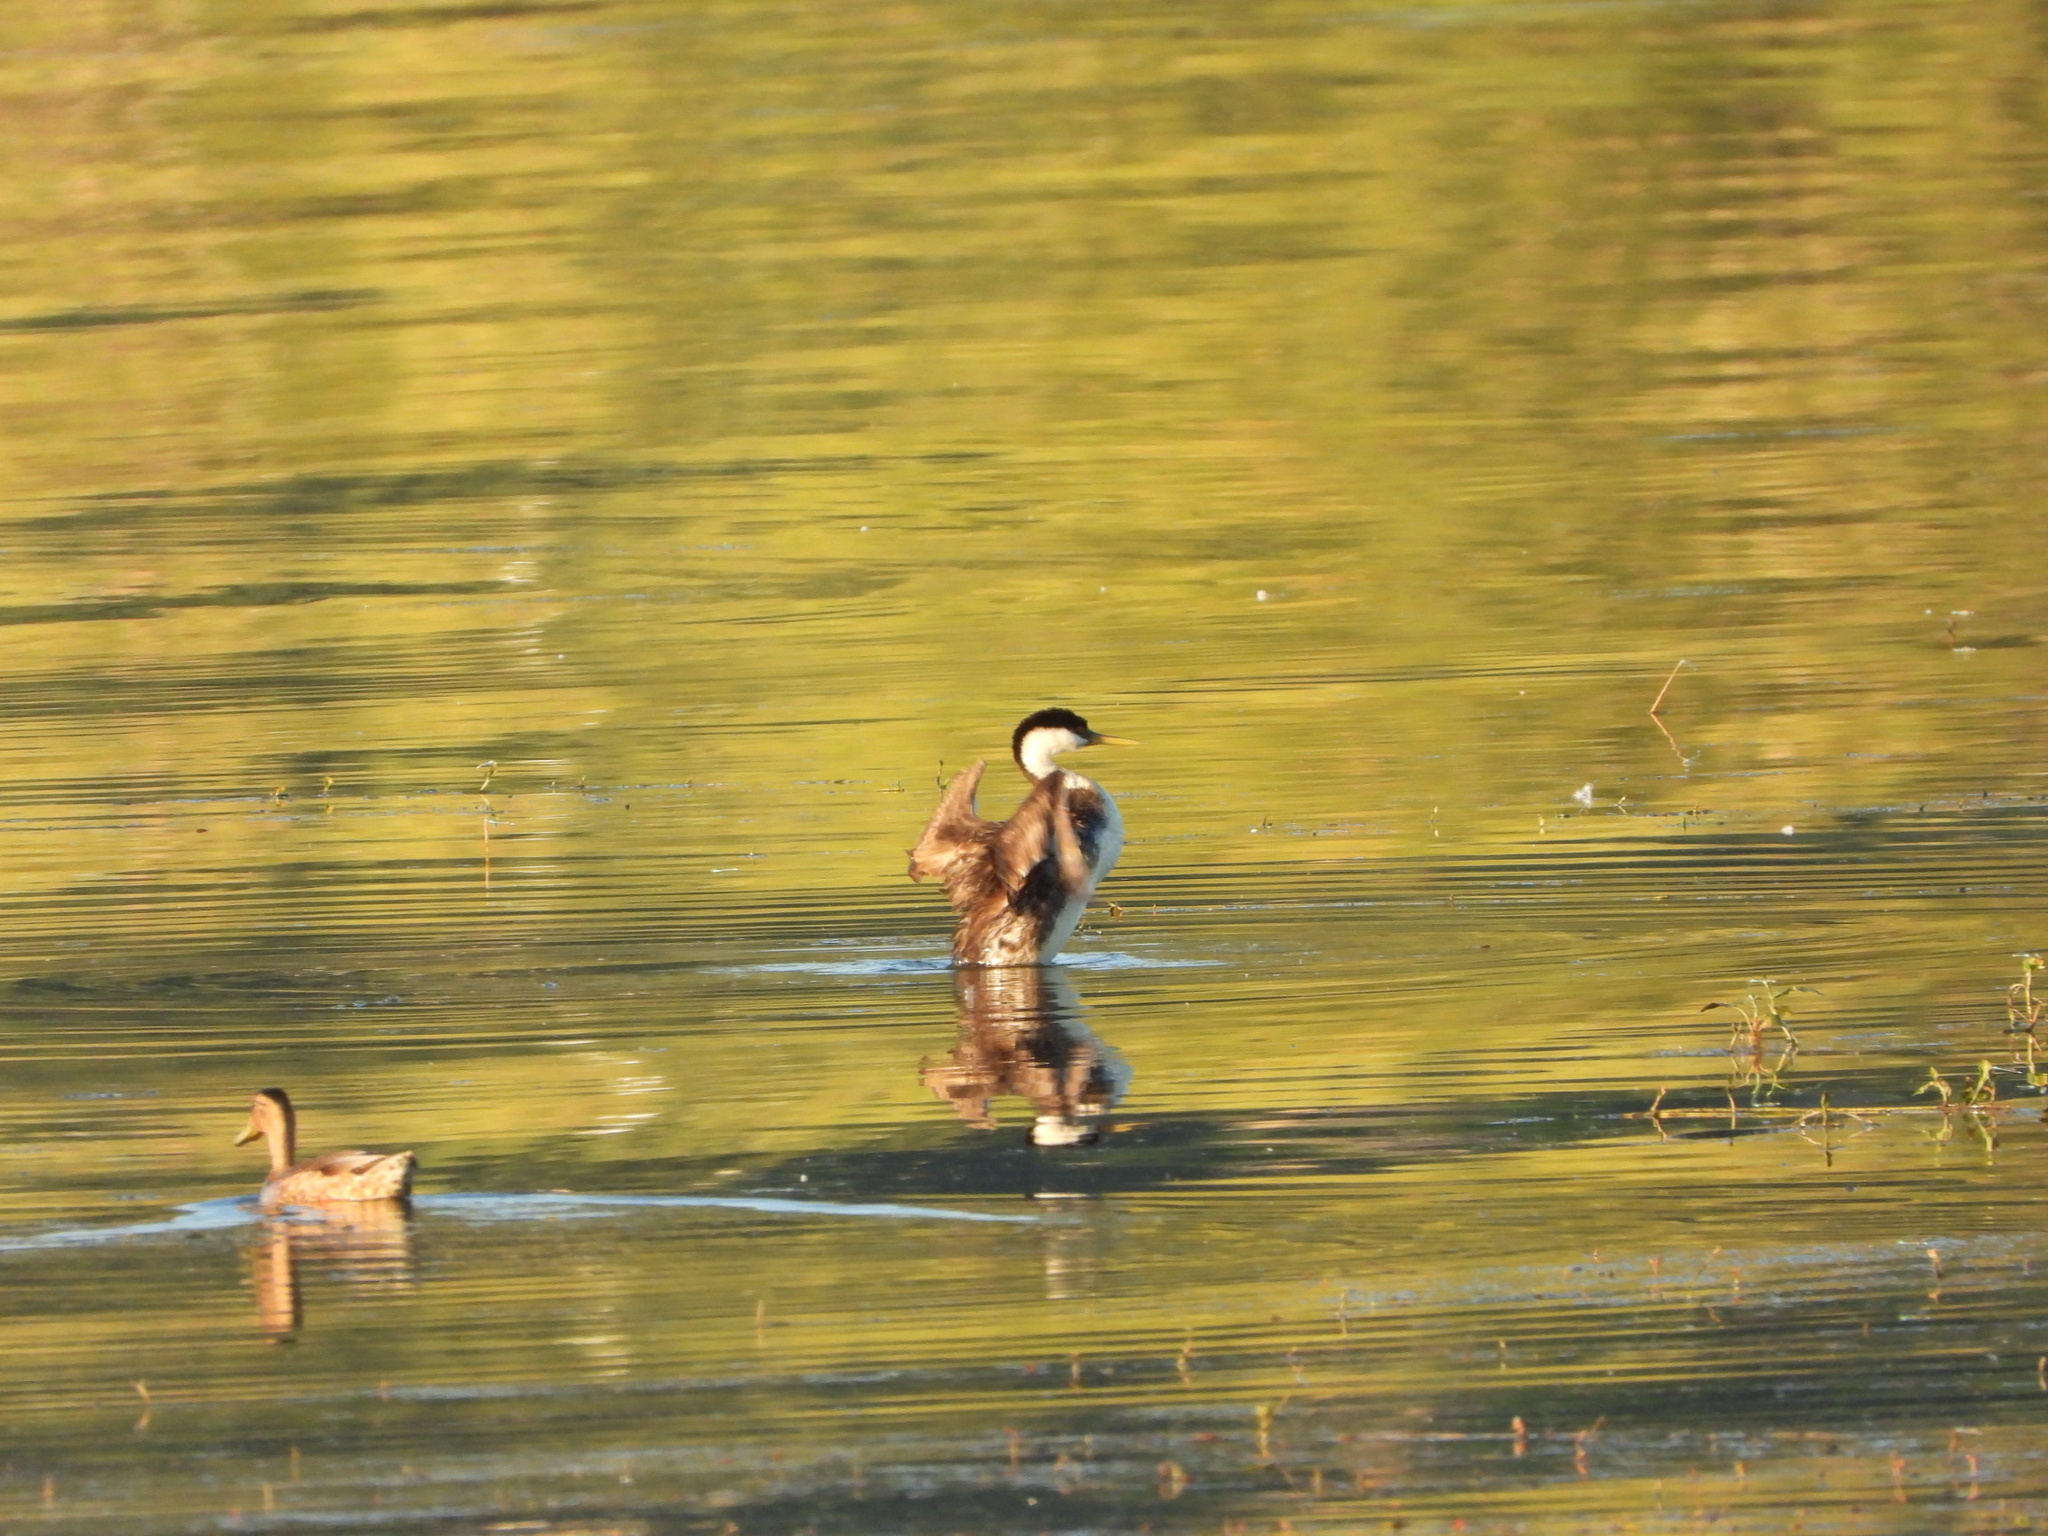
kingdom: Animalia
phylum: Chordata
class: Aves
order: Podicipediformes
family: Podicipedidae
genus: Aechmophorus
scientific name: Aechmophorus occidentalis
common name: Western grebe
